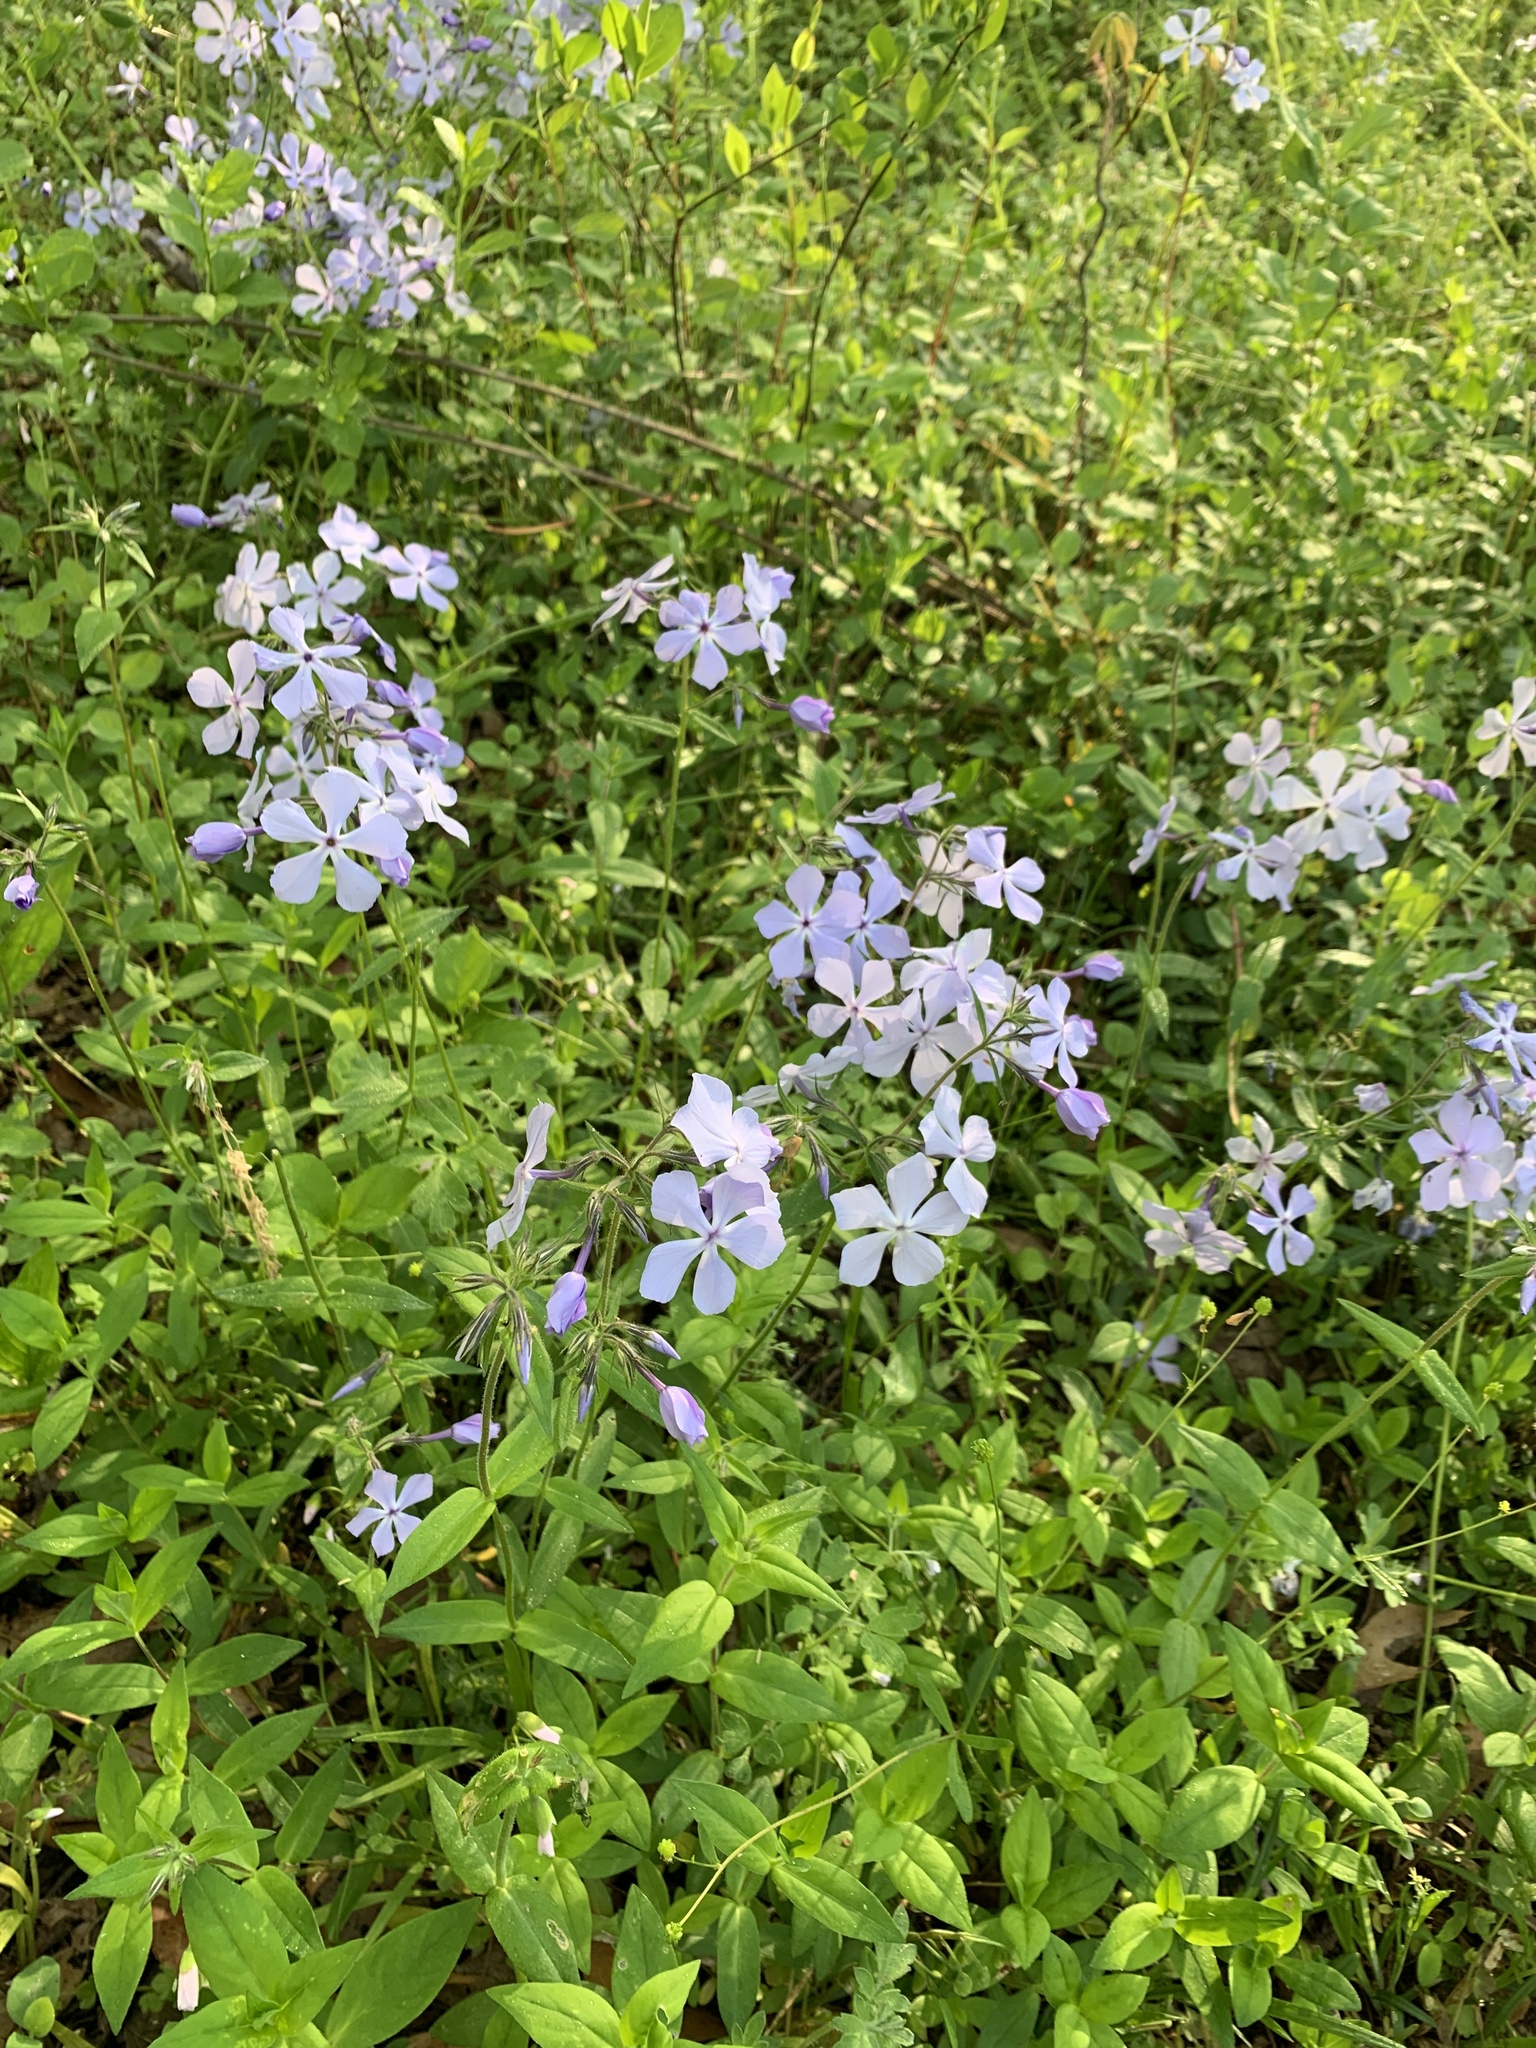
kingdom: Plantae
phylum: Tracheophyta
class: Magnoliopsida
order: Ericales
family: Polemoniaceae
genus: Phlox
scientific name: Phlox divaricata
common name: Blue phlox
